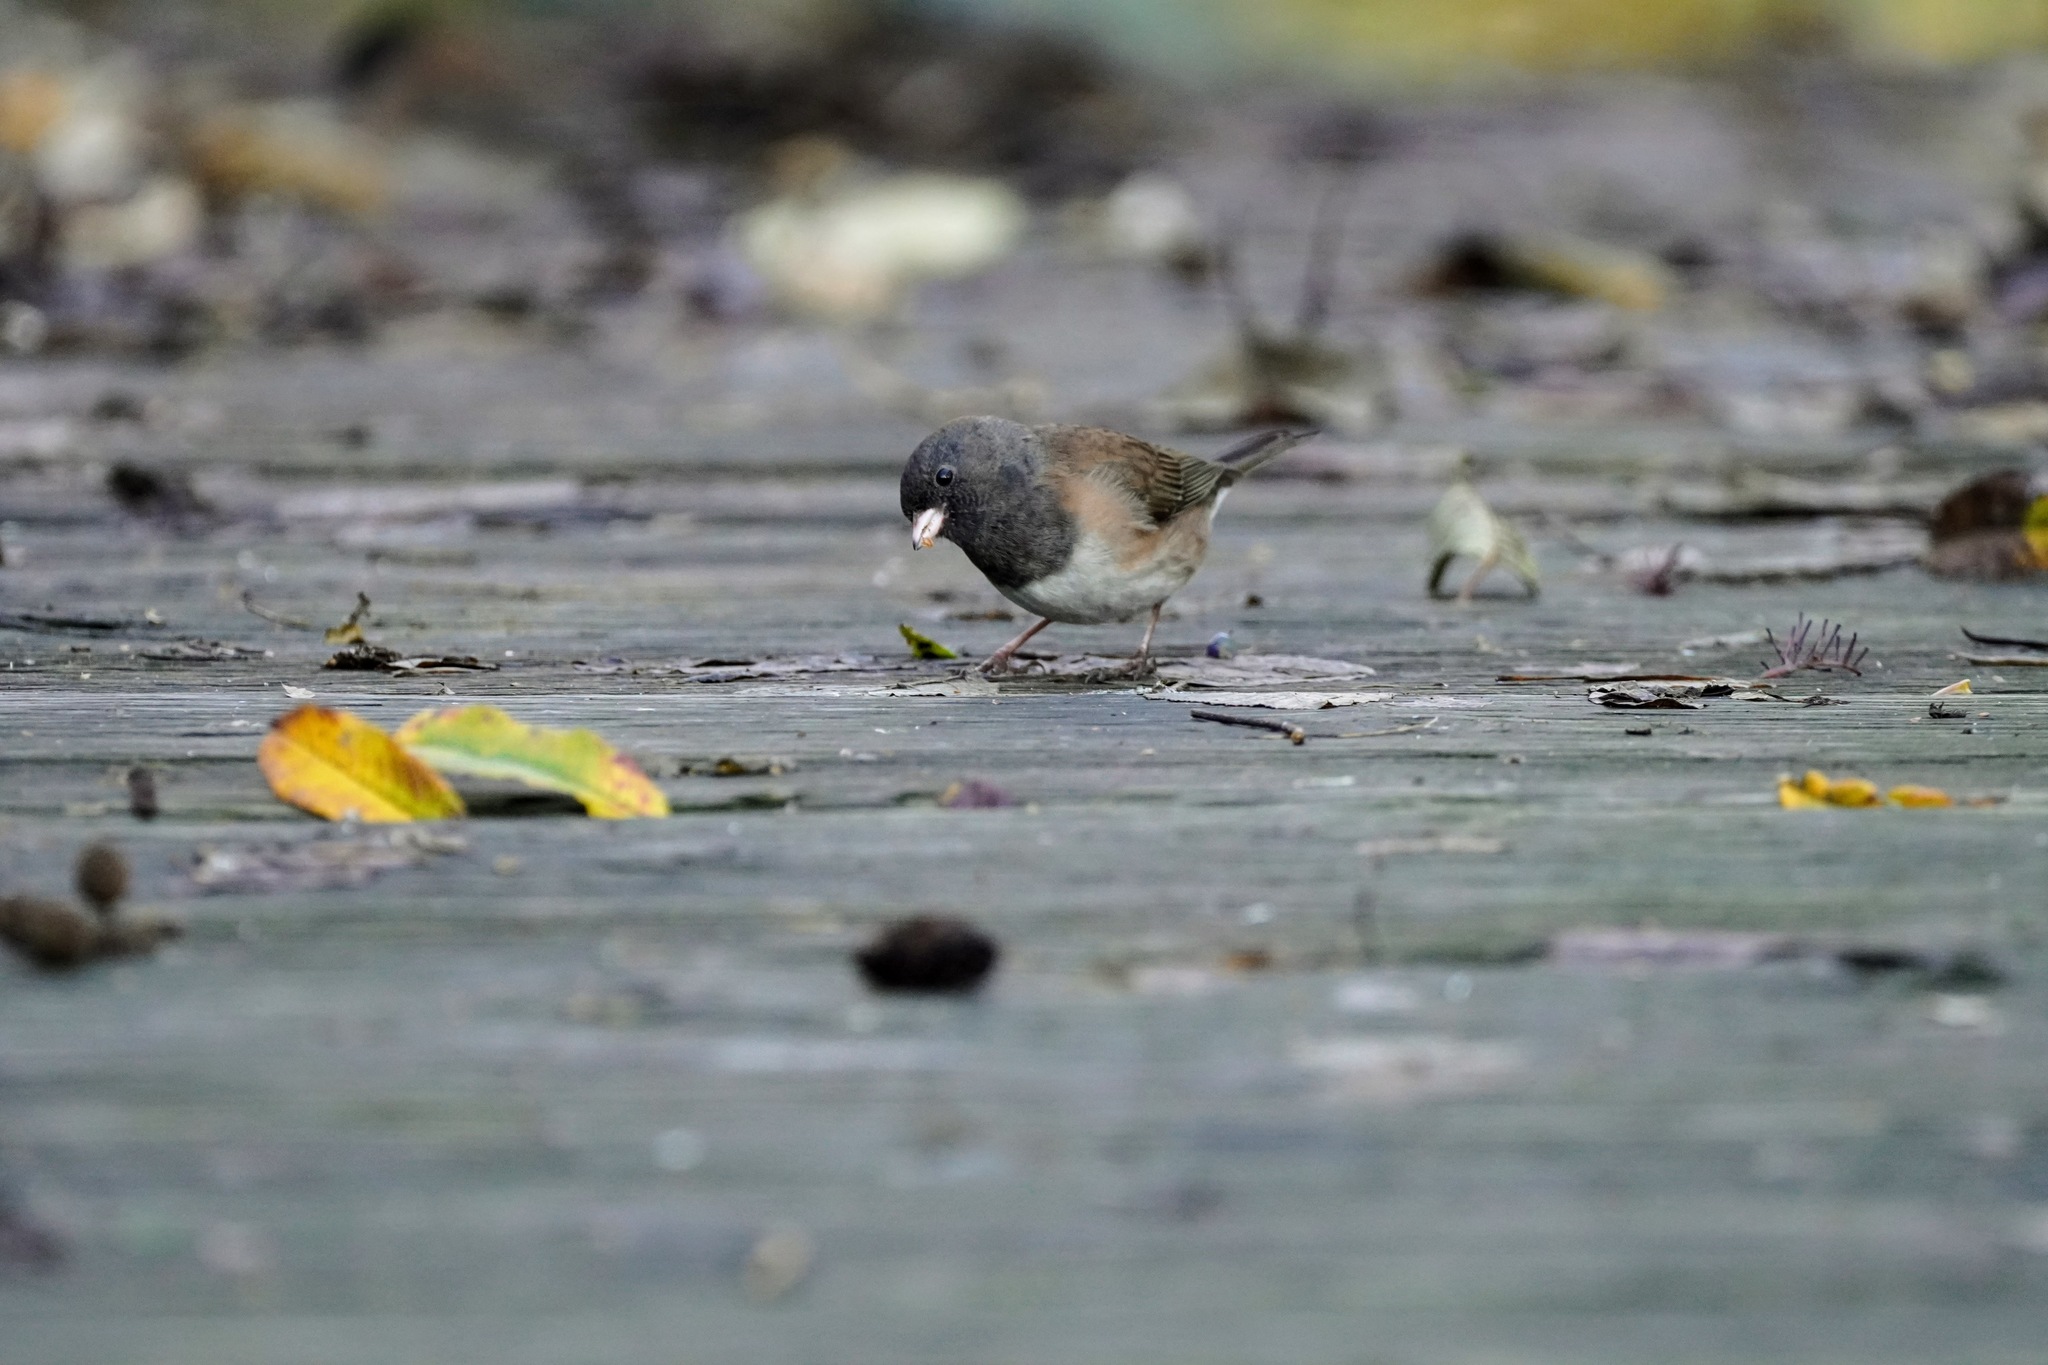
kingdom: Animalia
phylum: Chordata
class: Aves
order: Passeriformes
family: Passerellidae
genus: Junco
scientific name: Junco hyemalis
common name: Dark-eyed junco
